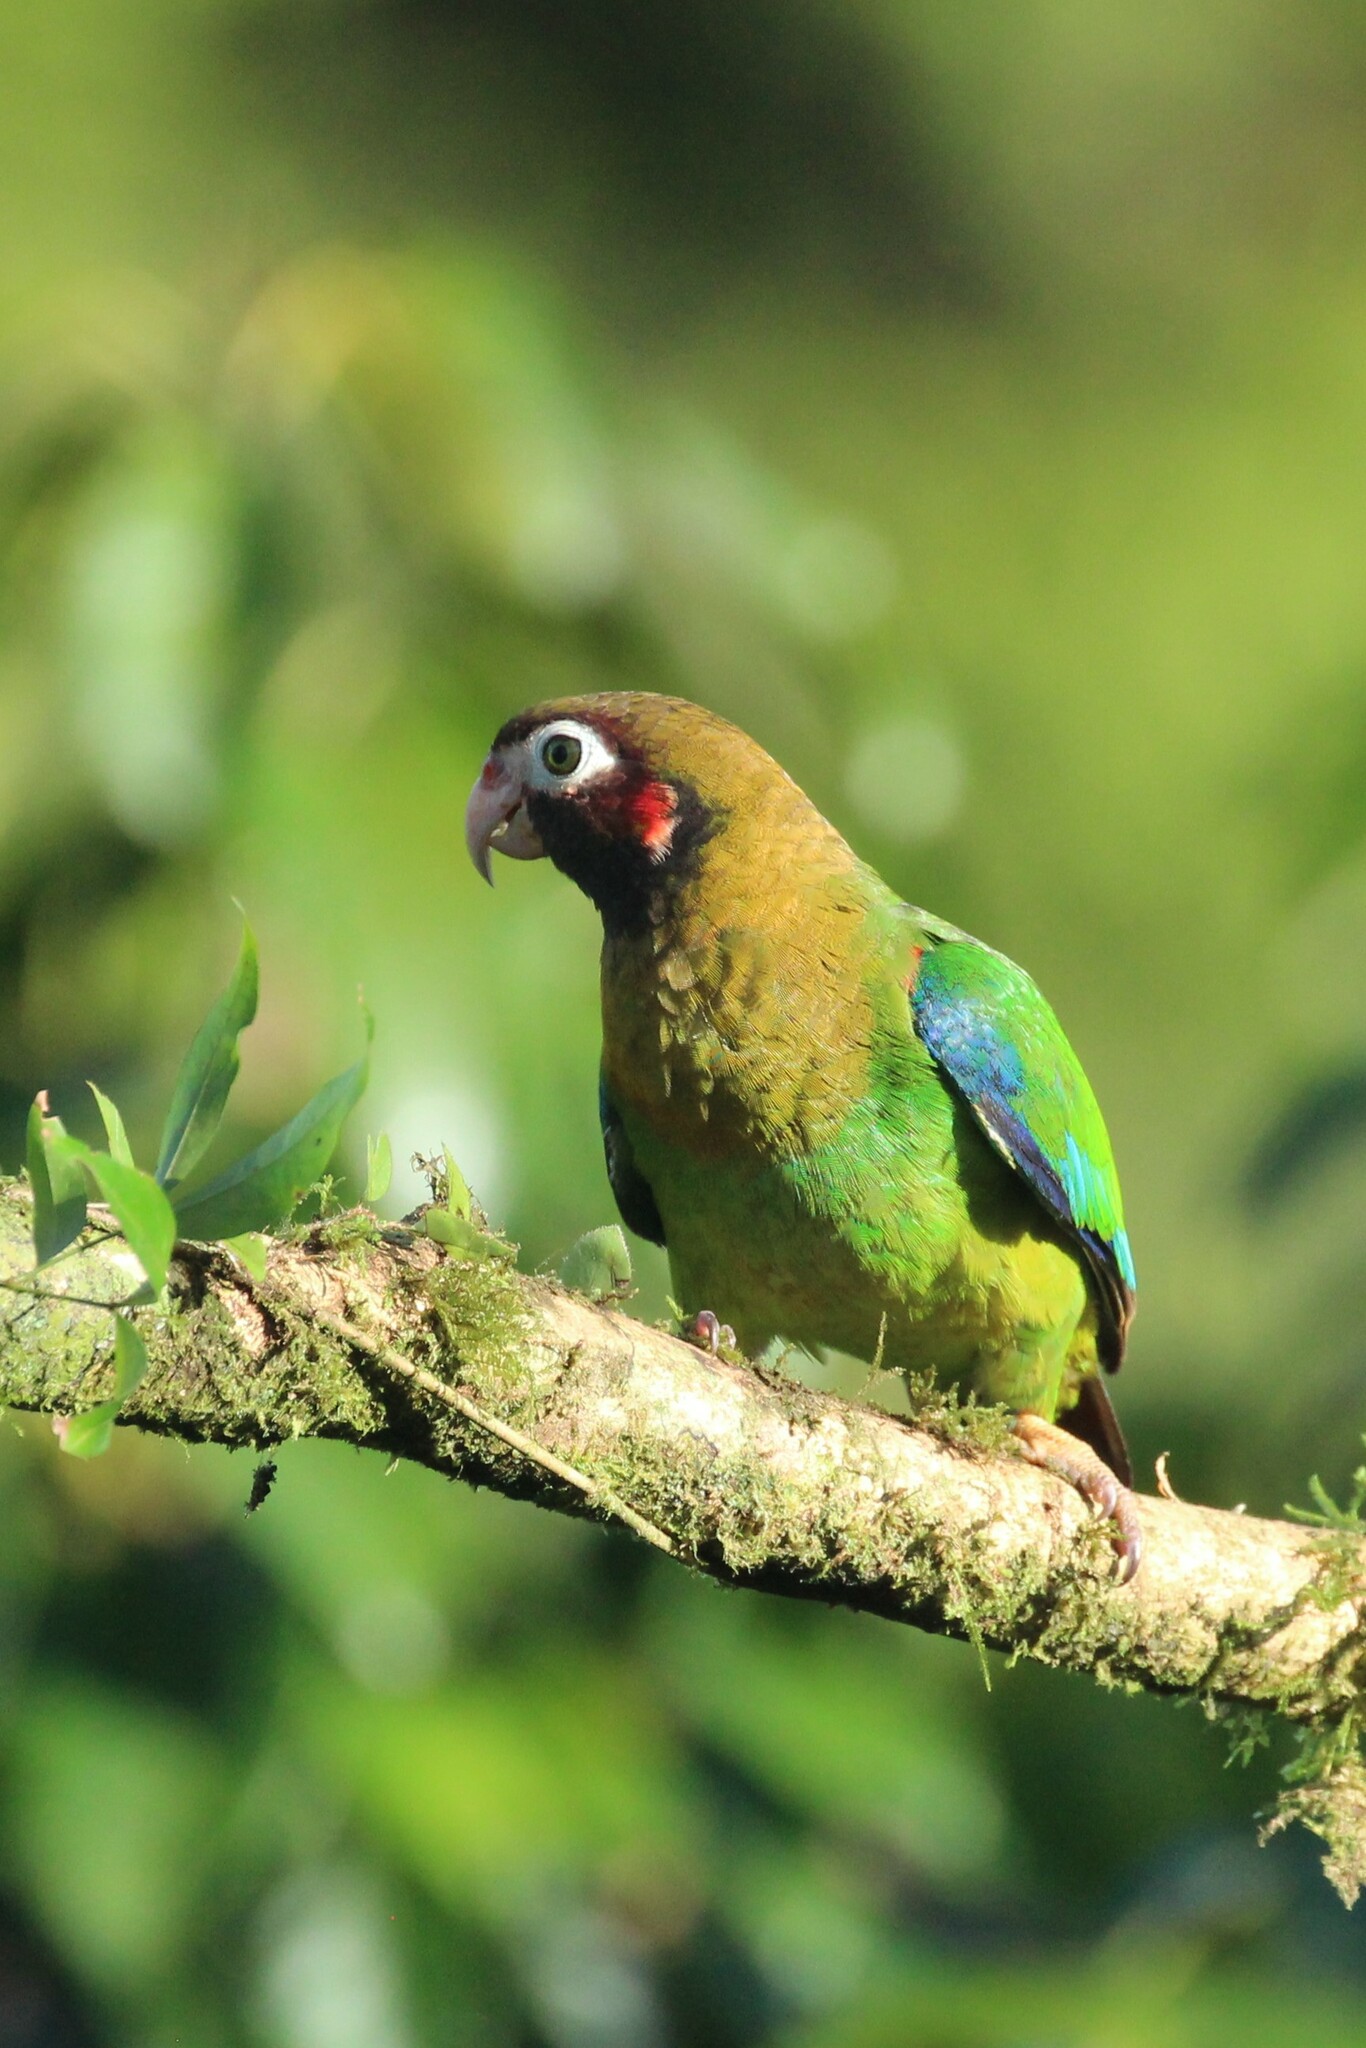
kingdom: Animalia
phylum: Chordata
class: Aves
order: Psittaciformes
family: Psittacidae
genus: Pionopsitta
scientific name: Pionopsitta haematotis
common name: Brown-hooded parrot
